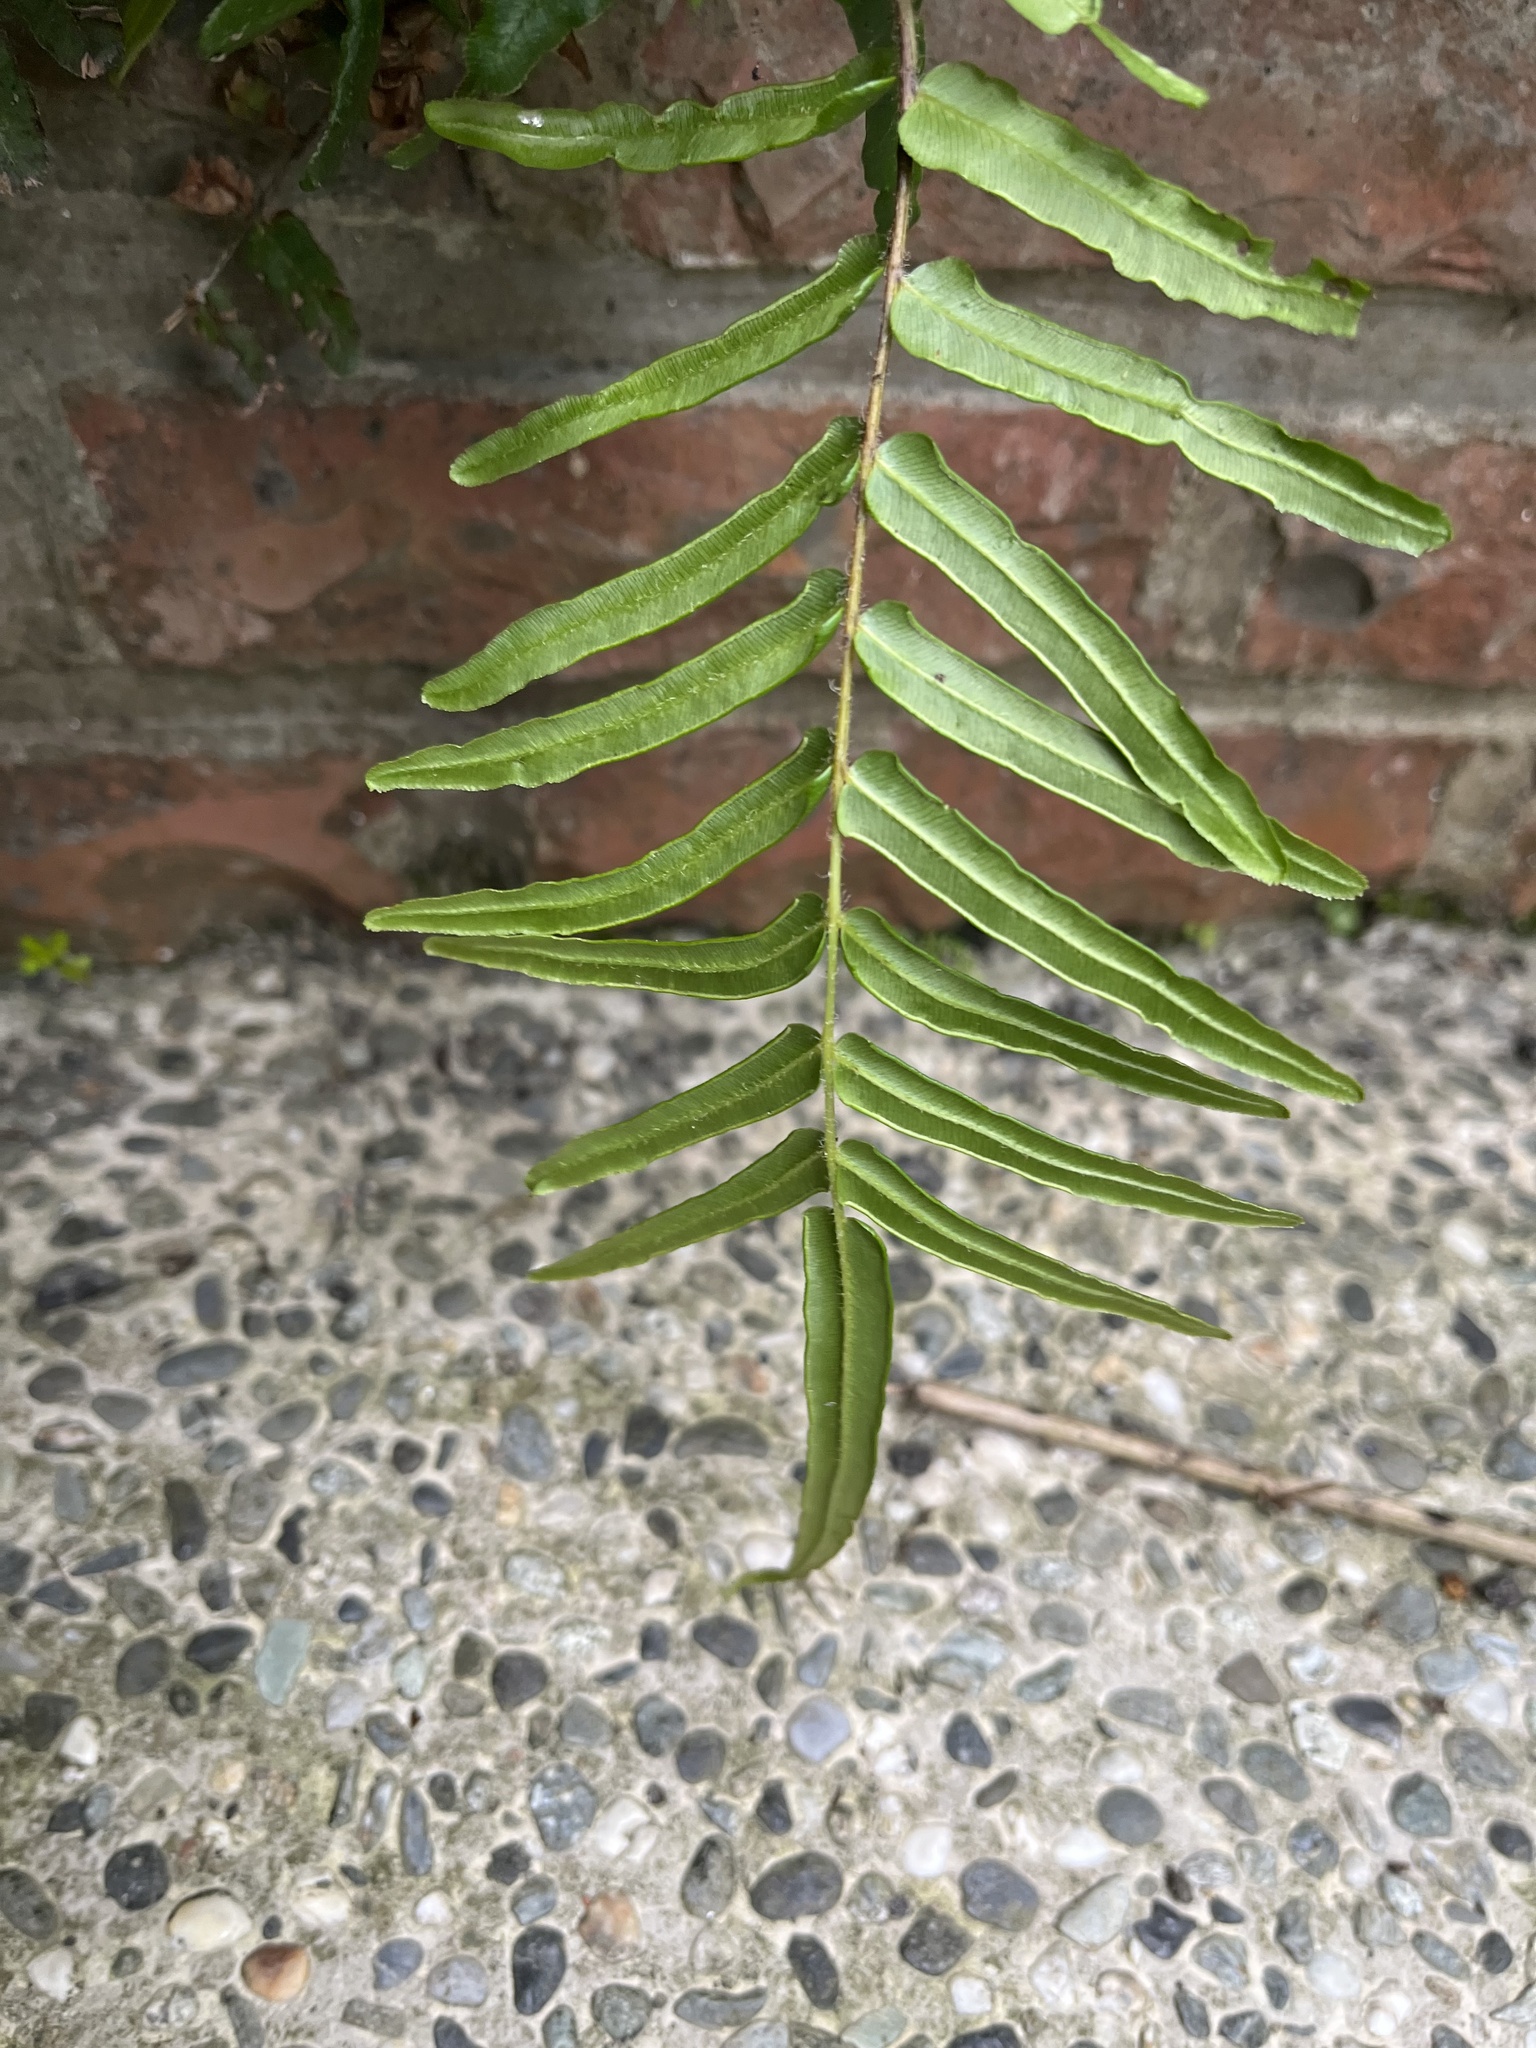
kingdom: Plantae
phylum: Tracheophyta
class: Polypodiopsida
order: Polypodiales
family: Pteridaceae
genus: Pteris
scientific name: Pteris vittata
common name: Ladder brake
